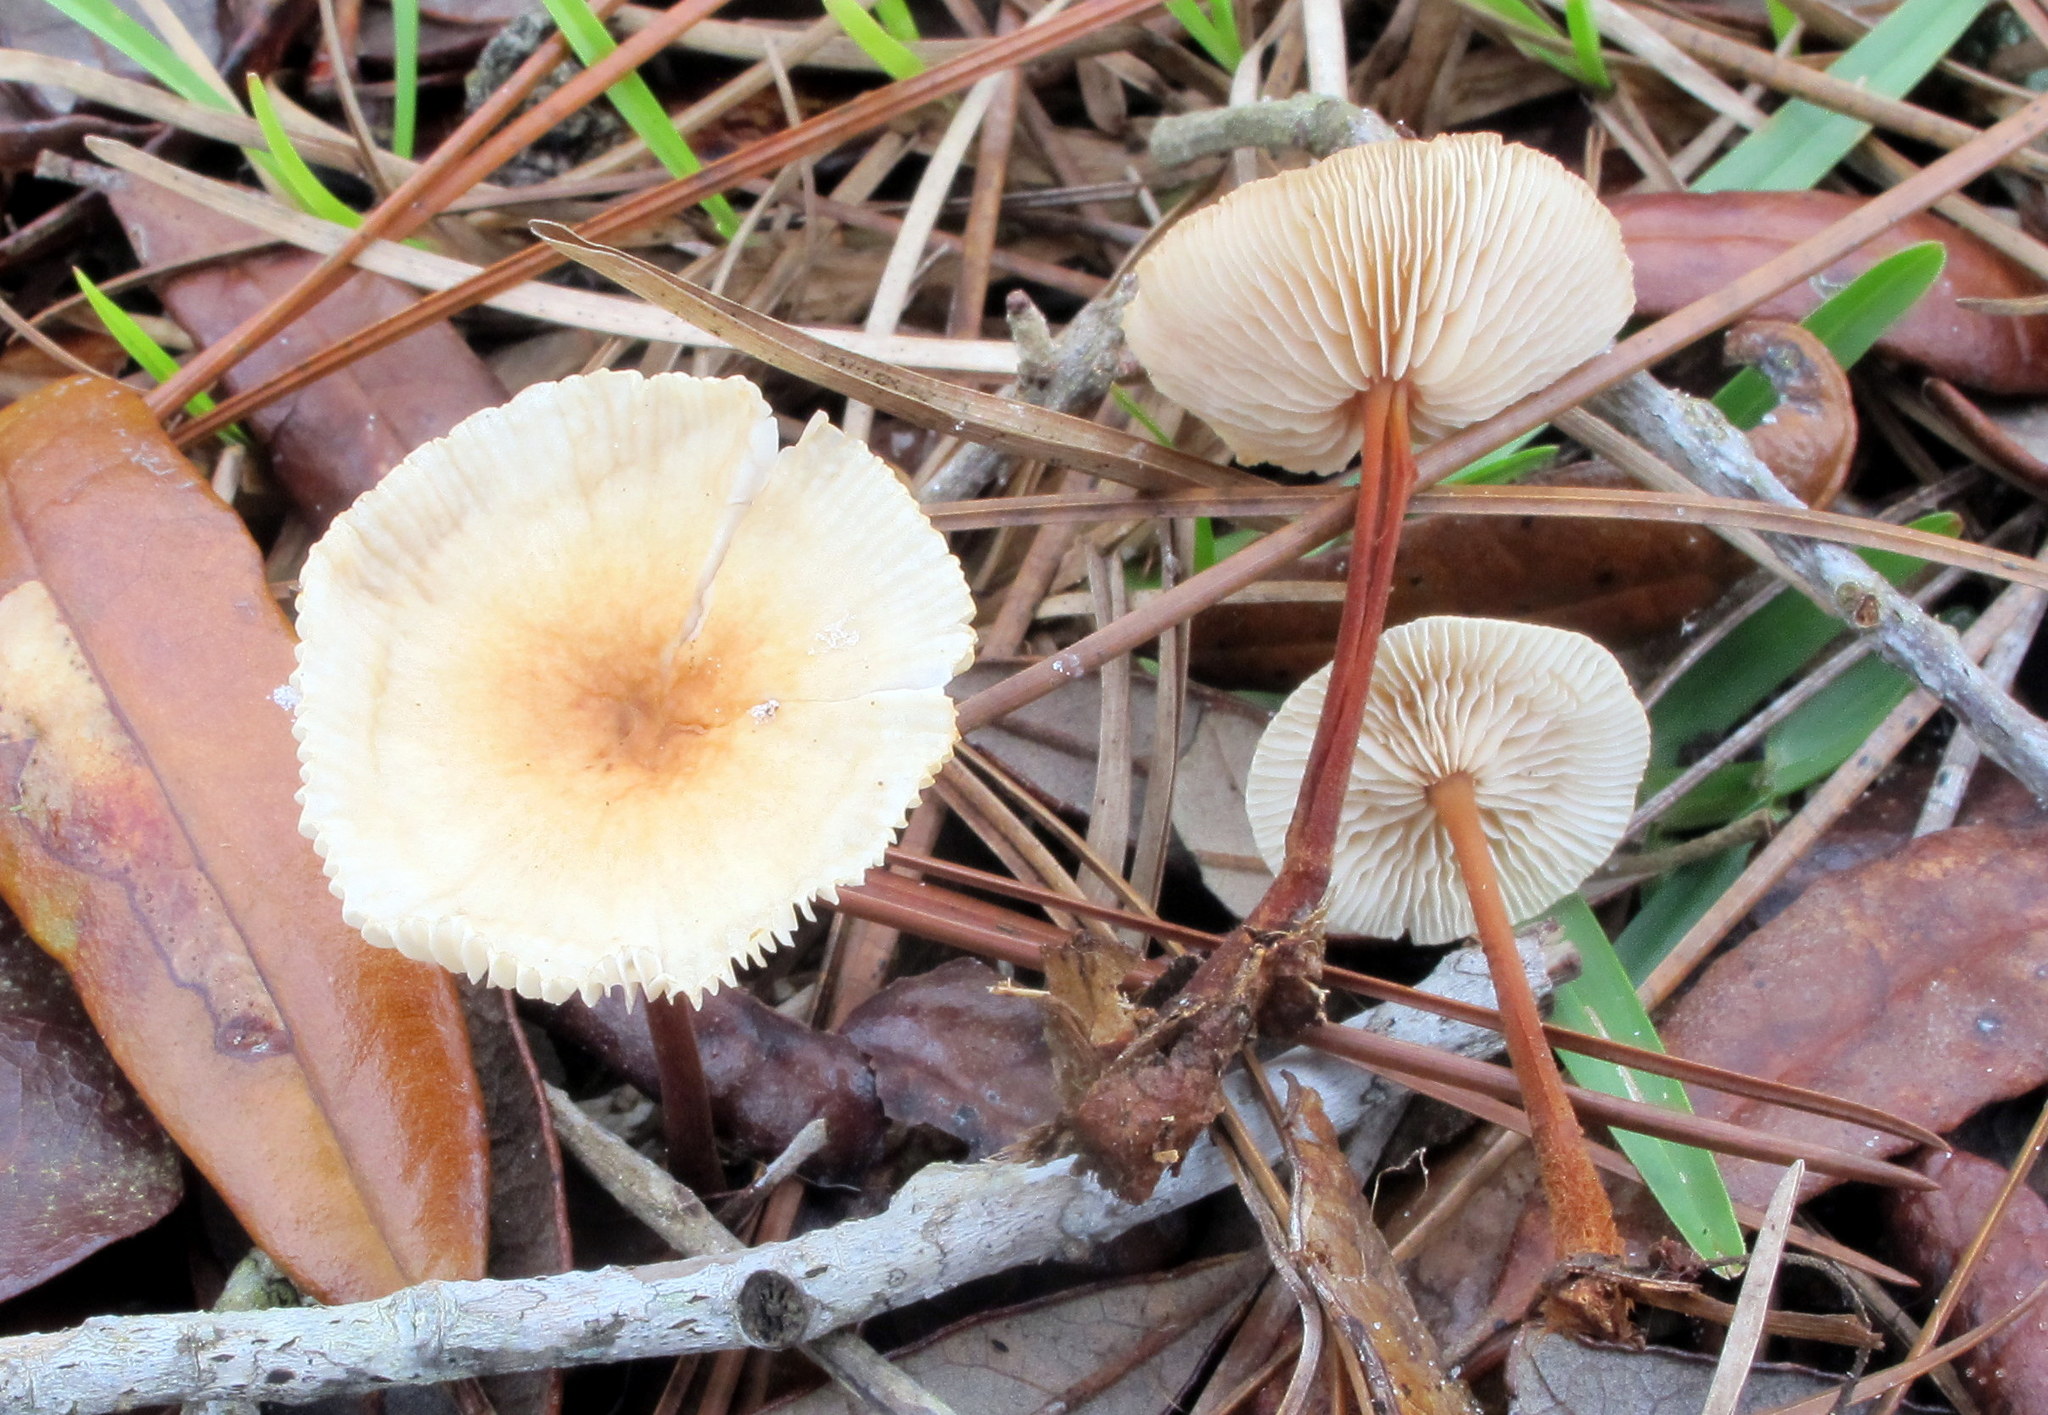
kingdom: Fungi
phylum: Basidiomycota
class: Agaricomycetes
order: Agaricales
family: Omphalotaceae
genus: Gymnopus
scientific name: Gymnopus semihirtipes
